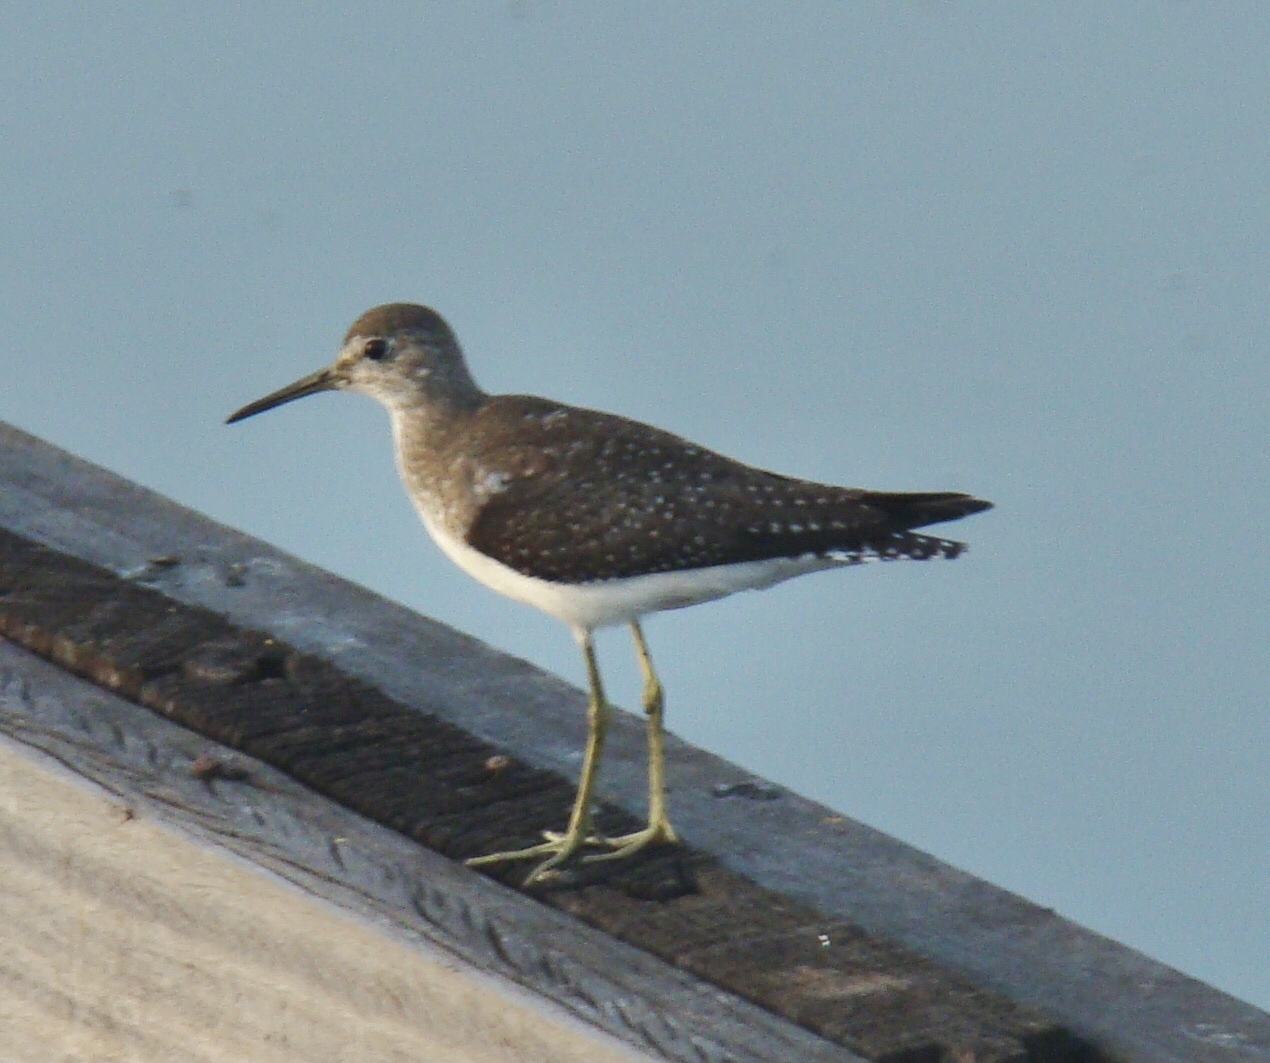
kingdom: Animalia
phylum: Chordata
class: Aves
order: Charadriiformes
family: Scolopacidae
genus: Tringa
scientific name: Tringa solitaria
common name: Solitary sandpiper
